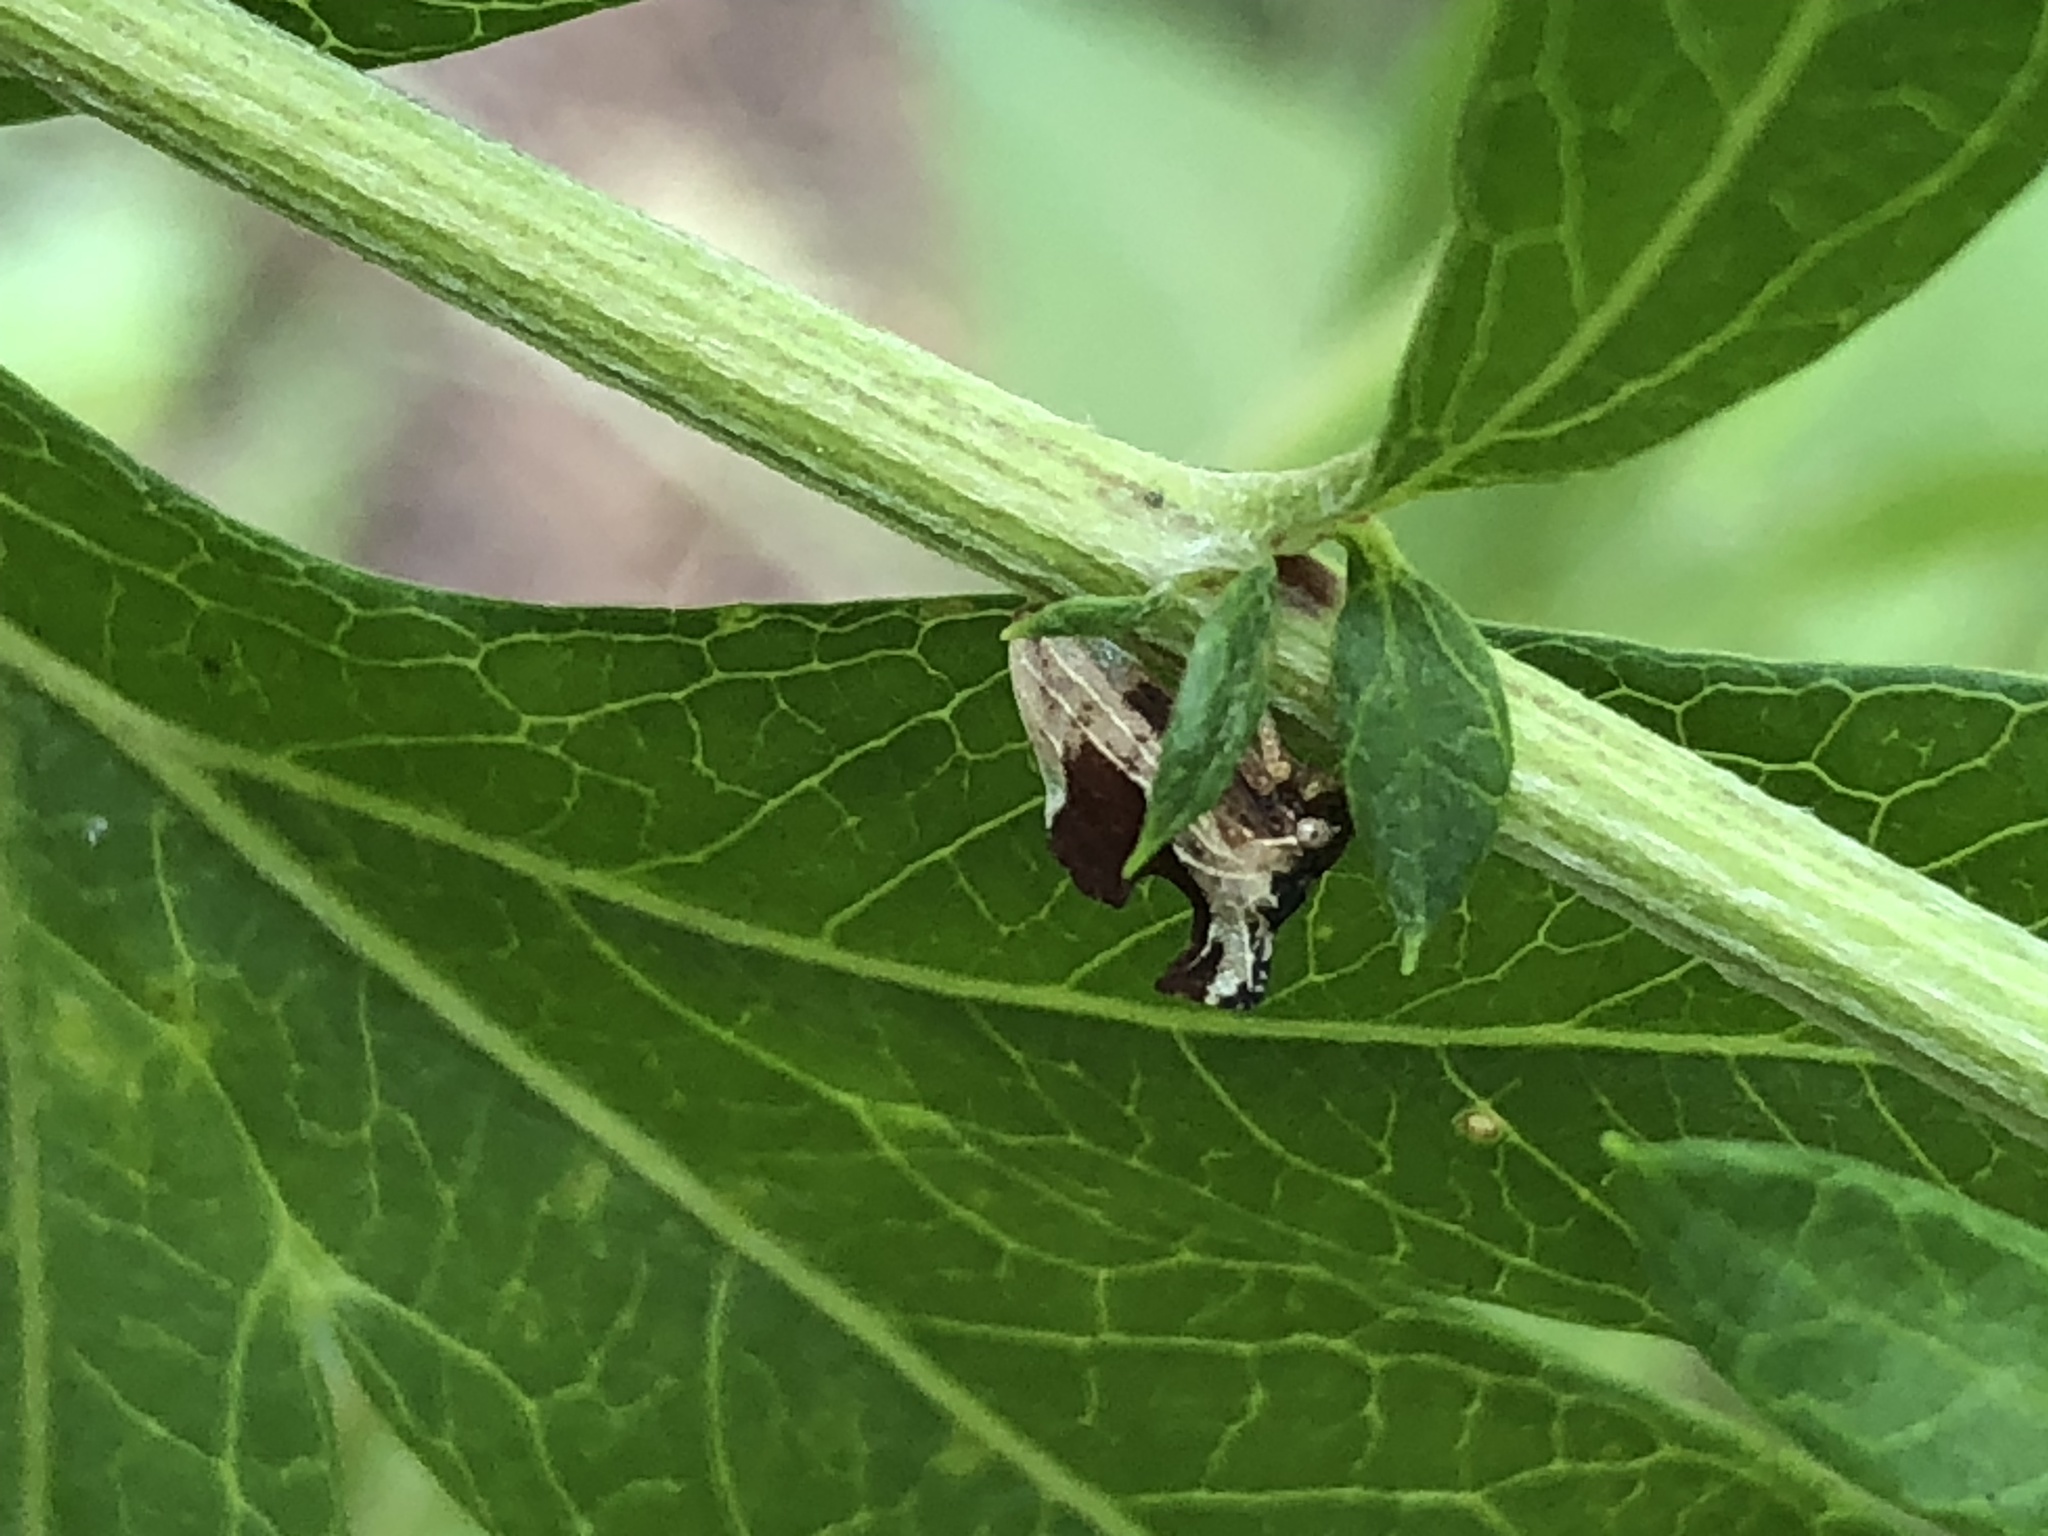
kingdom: Animalia
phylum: Arthropoda
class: Insecta
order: Hemiptera
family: Membracidae
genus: Entylia
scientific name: Entylia carinata
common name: Keeled treehopper
